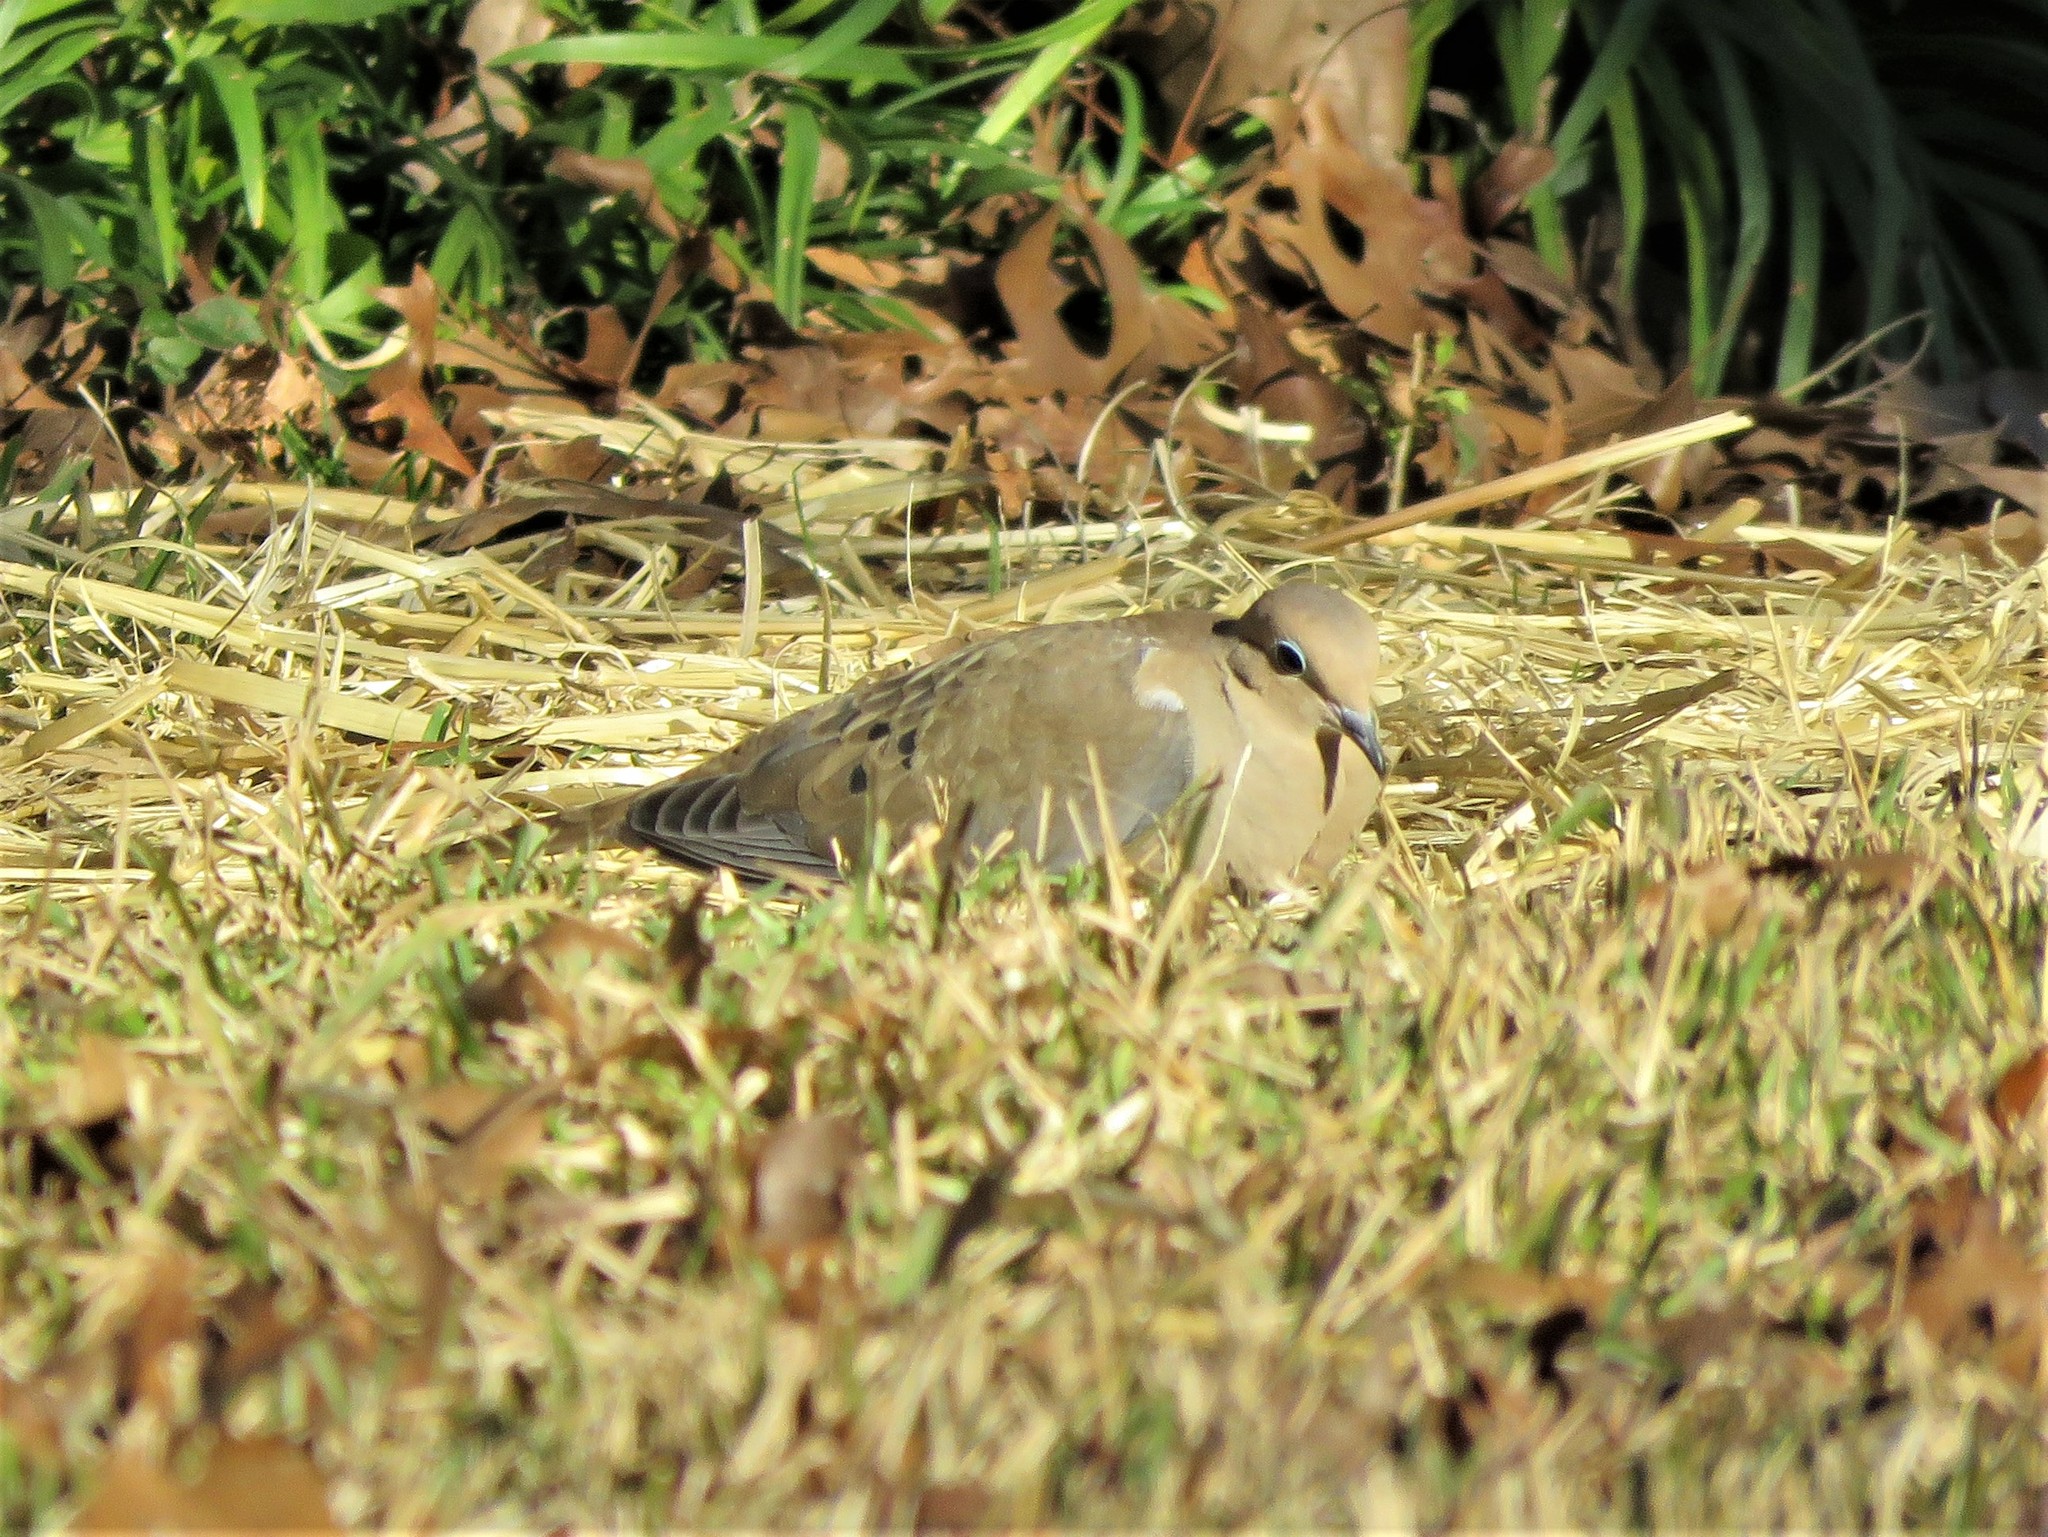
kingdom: Animalia
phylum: Chordata
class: Aves
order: Columbiformes
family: Columbidae
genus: Zenaida
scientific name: Zenaida macroura
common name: Mourning dove
